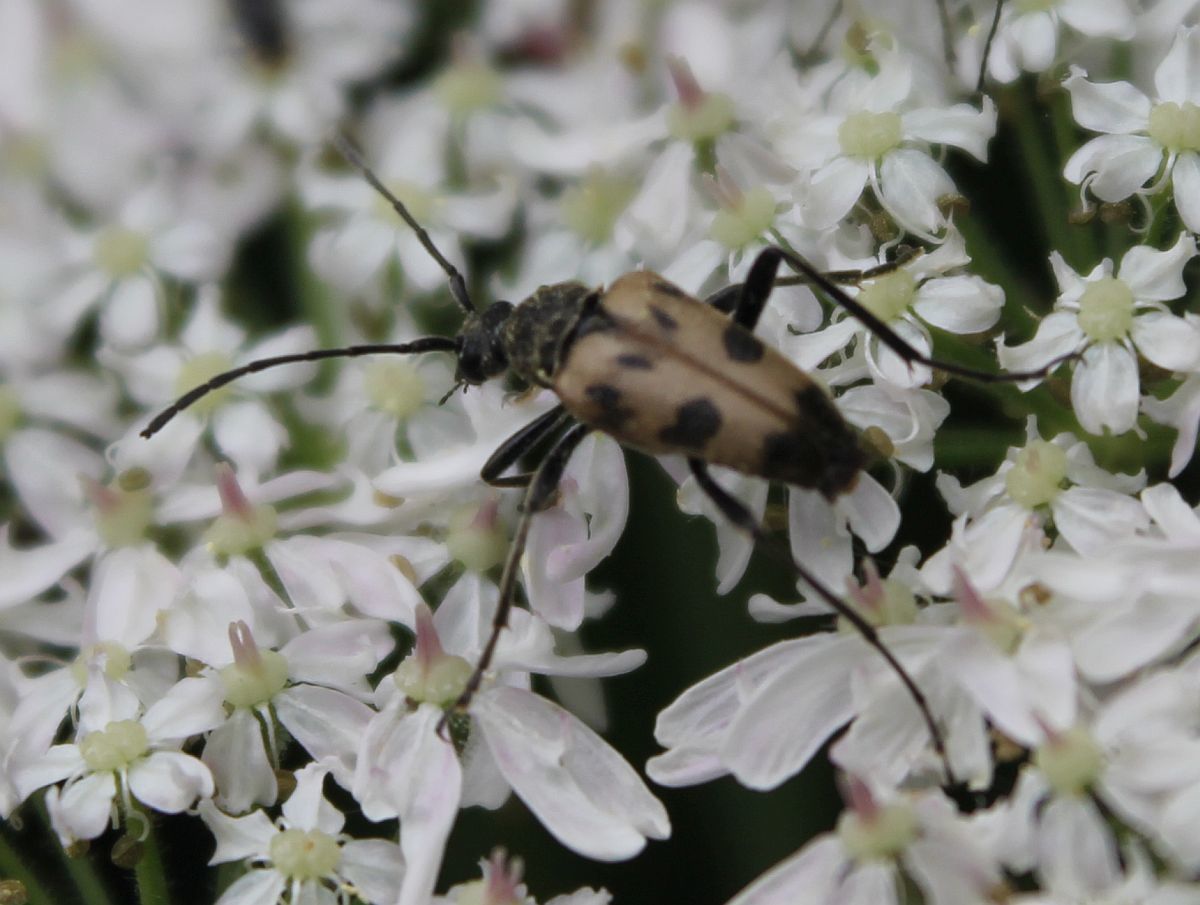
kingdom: Animalia
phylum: Arthropoda
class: Insecta
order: Coleoptera
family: Cerambycidae
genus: Pachytodes
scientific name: Pachytodes cerambyciformis
